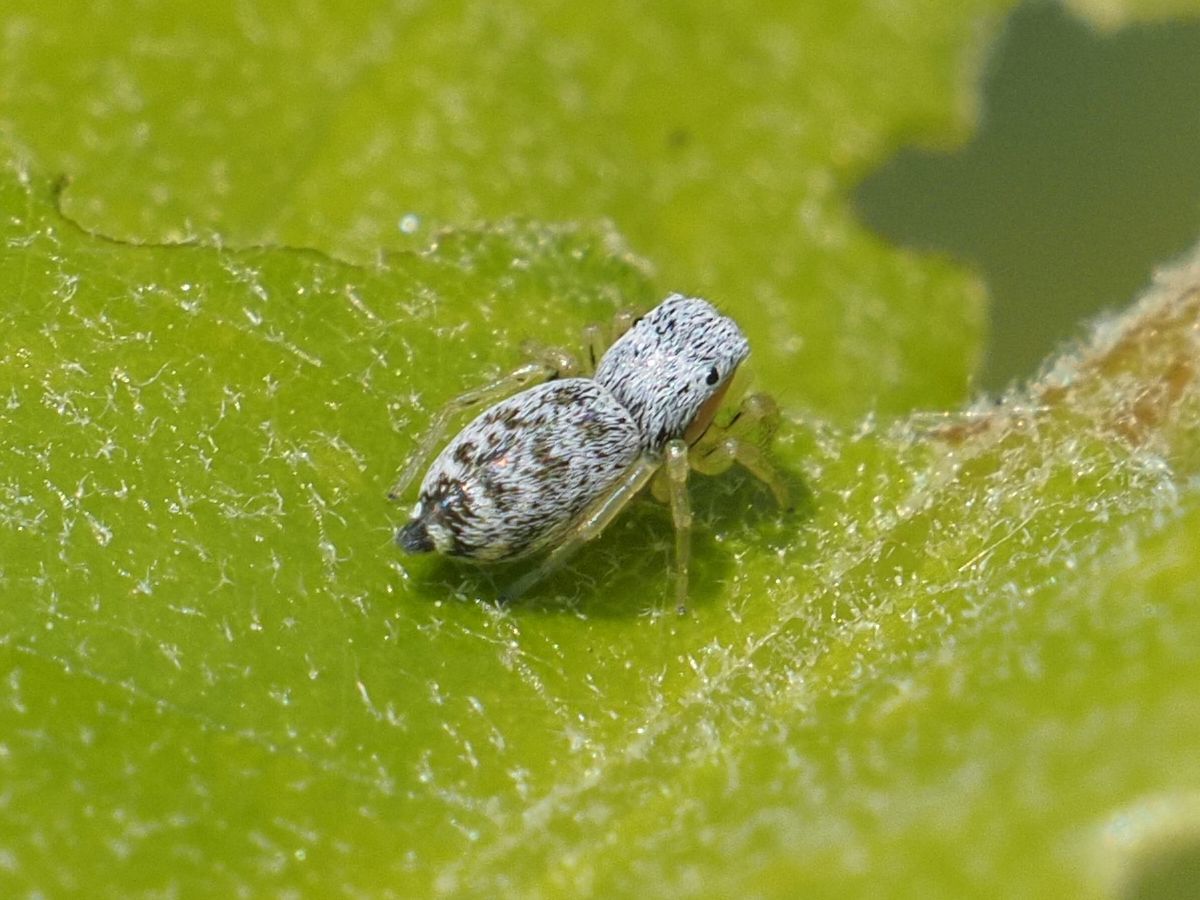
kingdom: Animalia
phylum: Arthropoda
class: Arachnida
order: Araneae
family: Salticidae
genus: Heliophanus
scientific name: Heliophanus simplex
